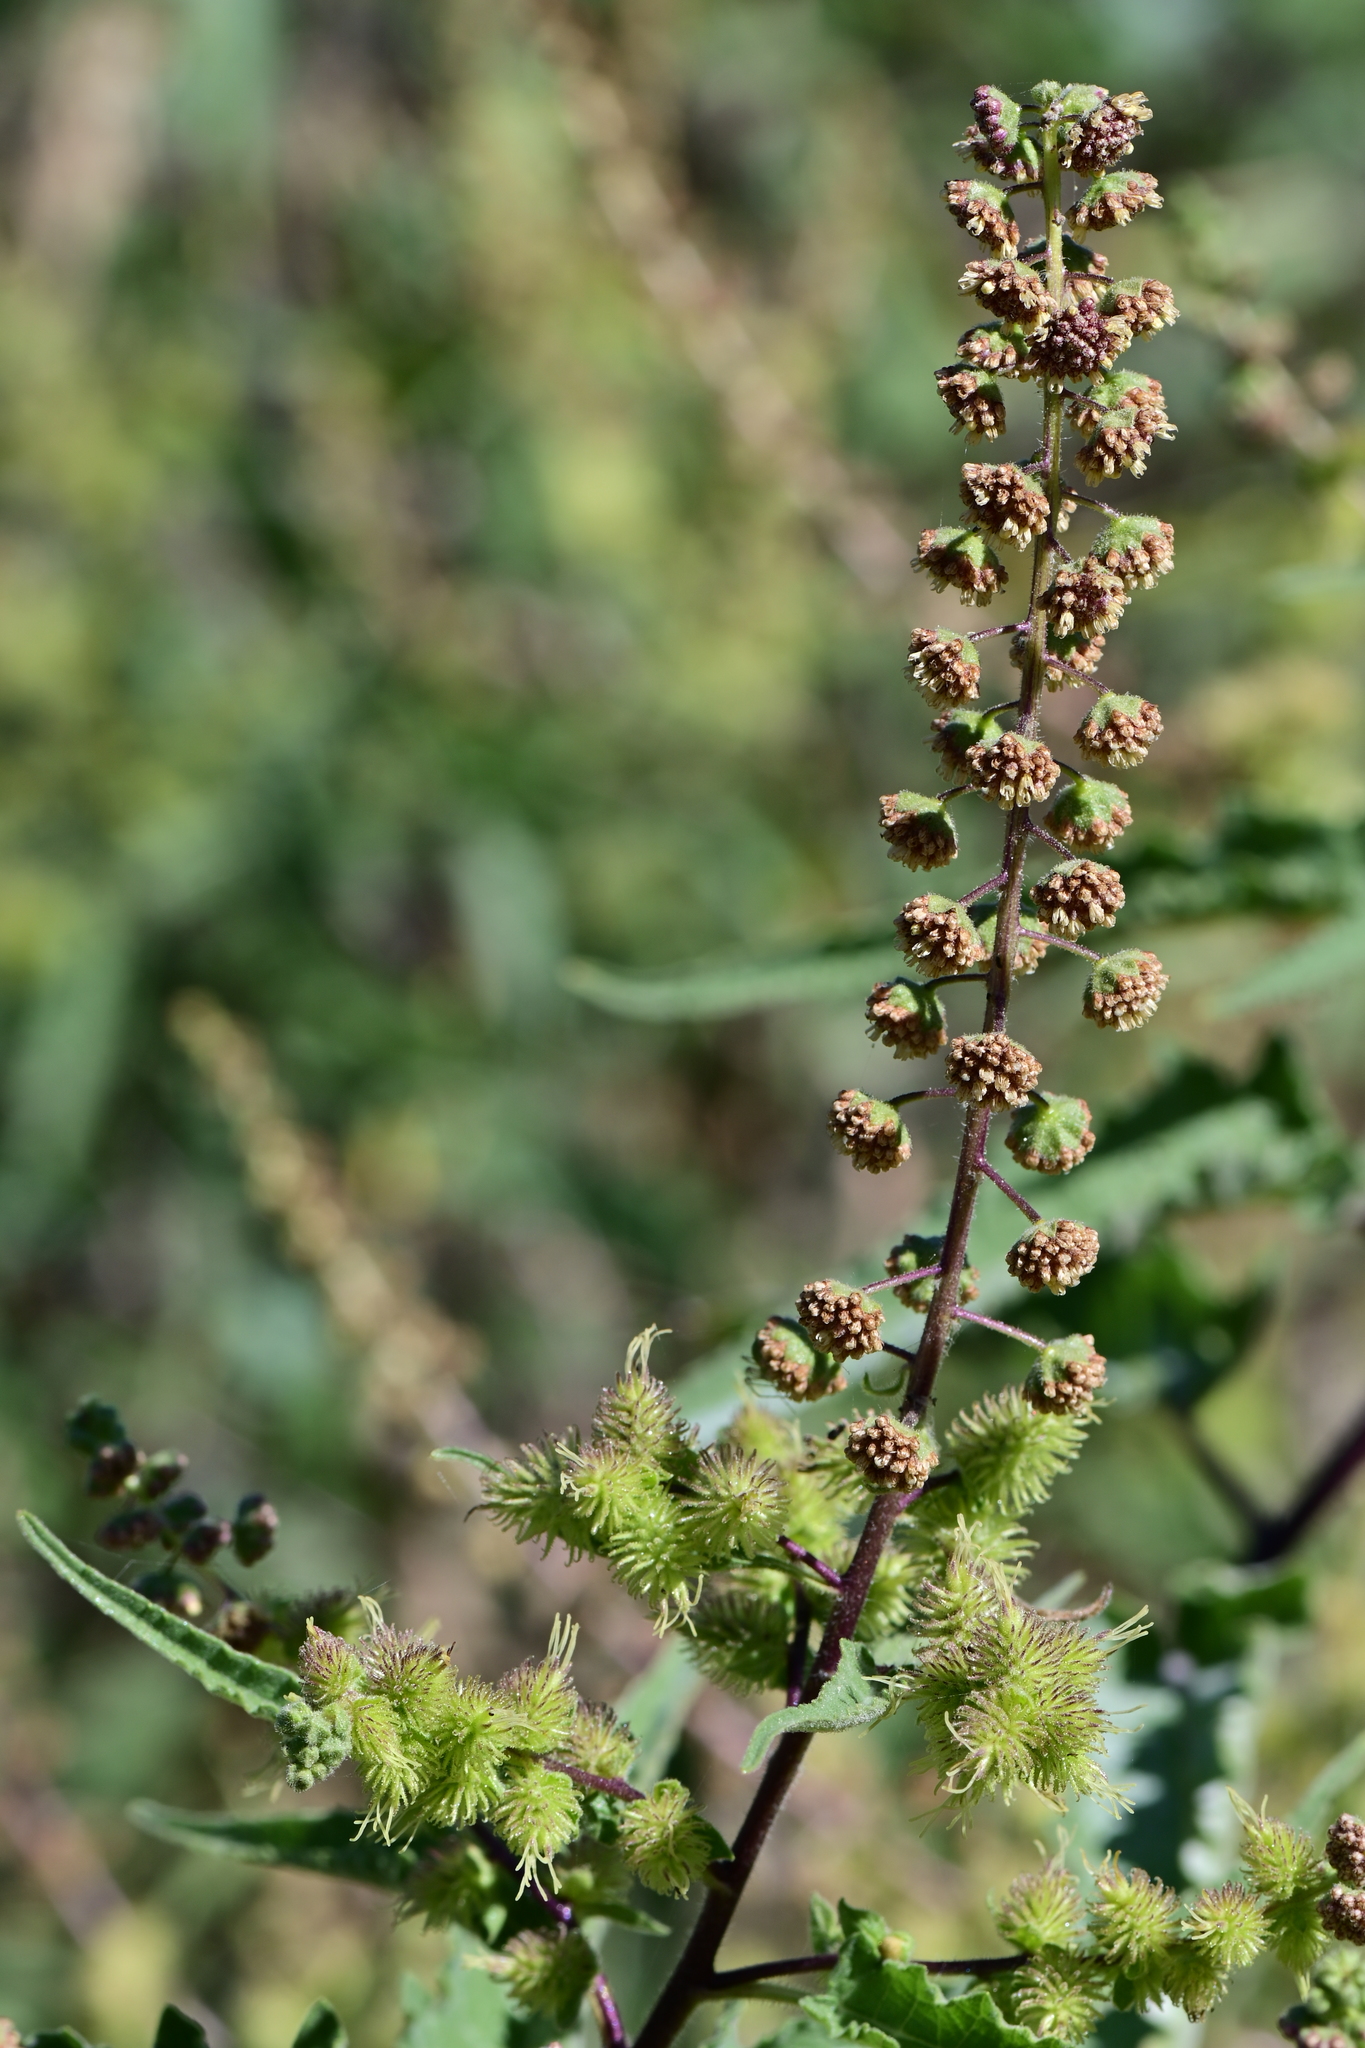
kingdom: Plantae
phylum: Tracheophyta
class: Magnoliopsida
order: Asterales
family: Asteraceae
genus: Ambrosia
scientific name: Ambrosia ambrosioides
